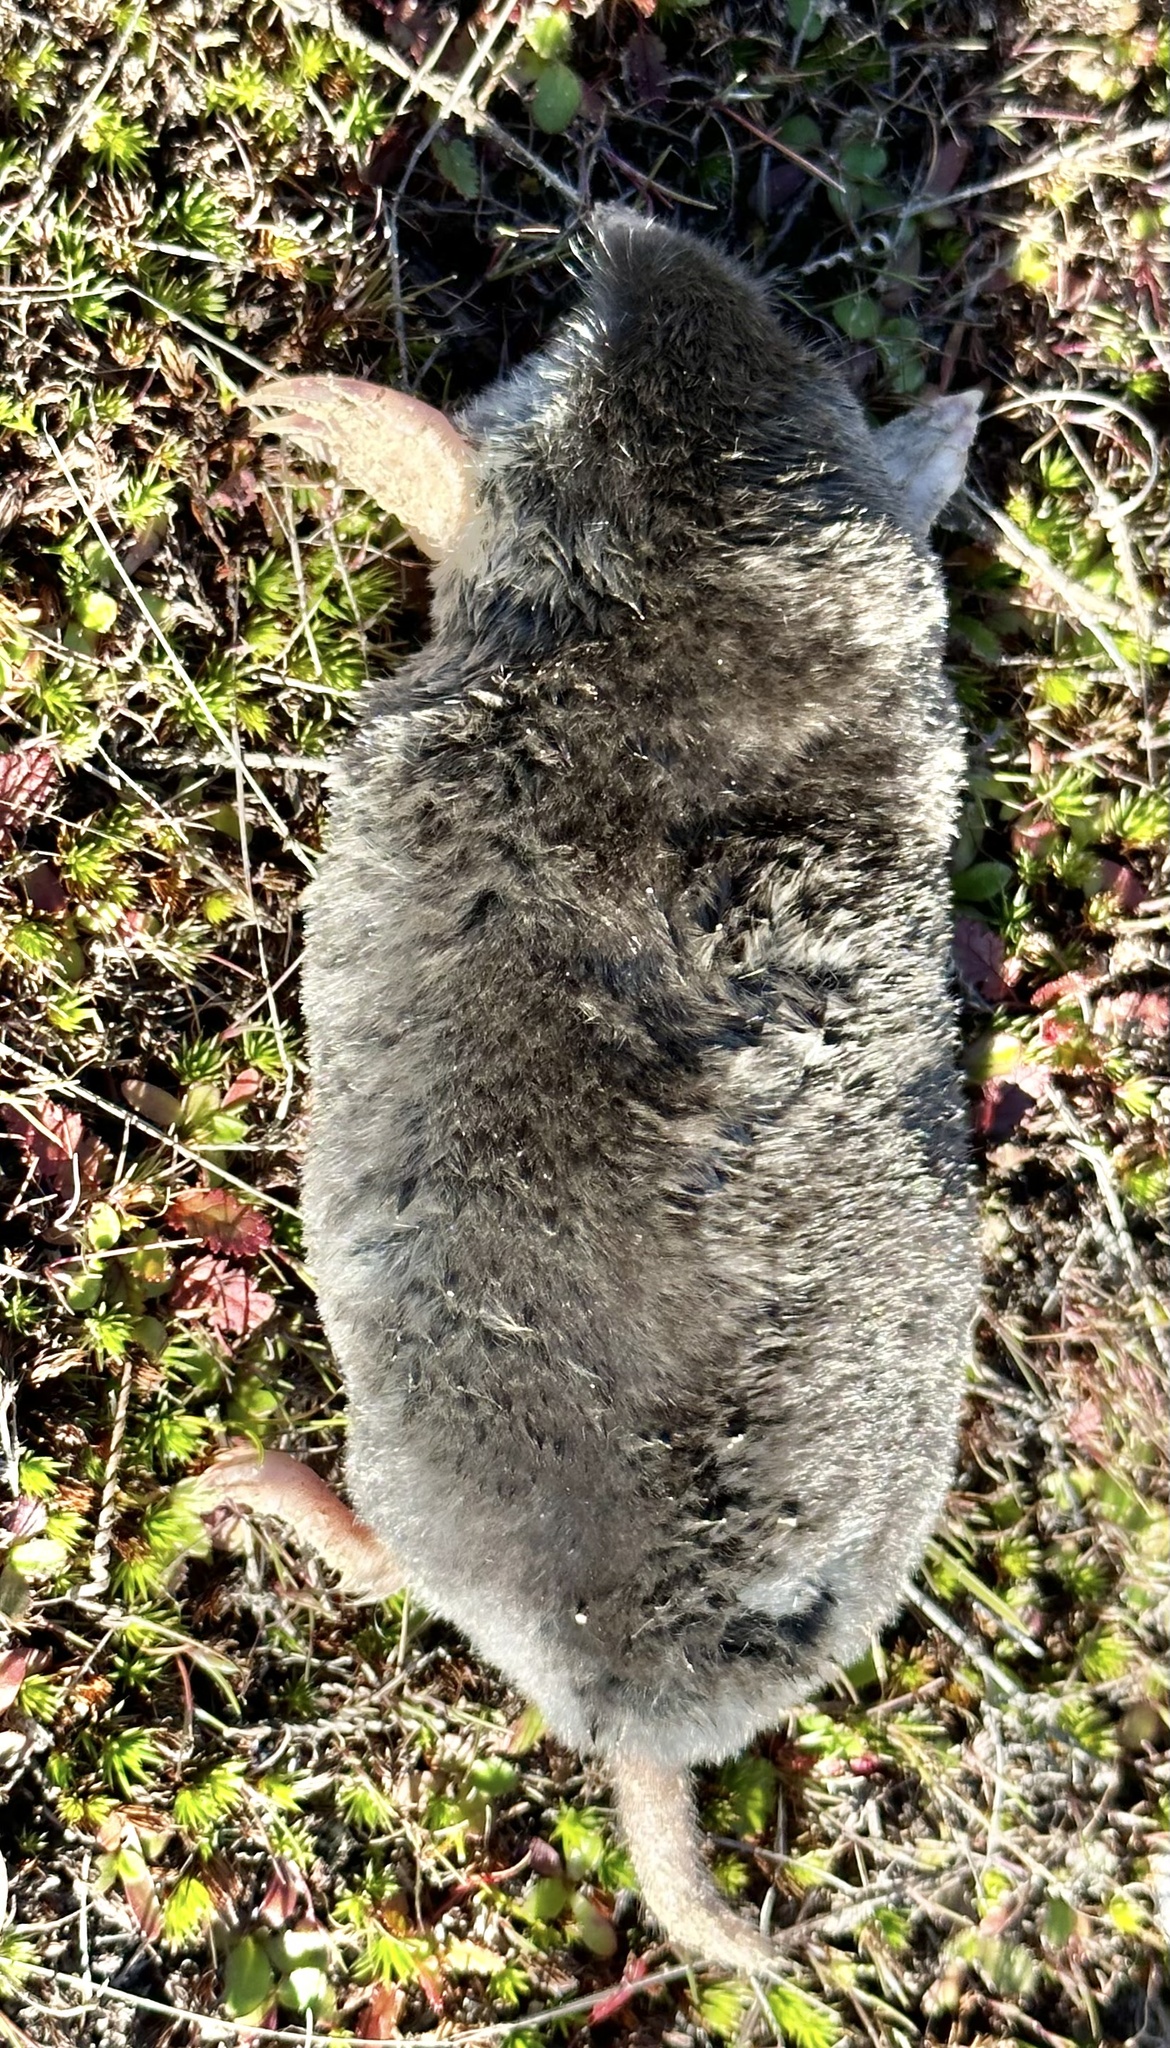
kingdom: Animalia
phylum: Chordata
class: Mammalia
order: Soricomorpha
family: Talpidae
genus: Scapanus
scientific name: Scapanus latimanus
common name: Broad-footed mole
